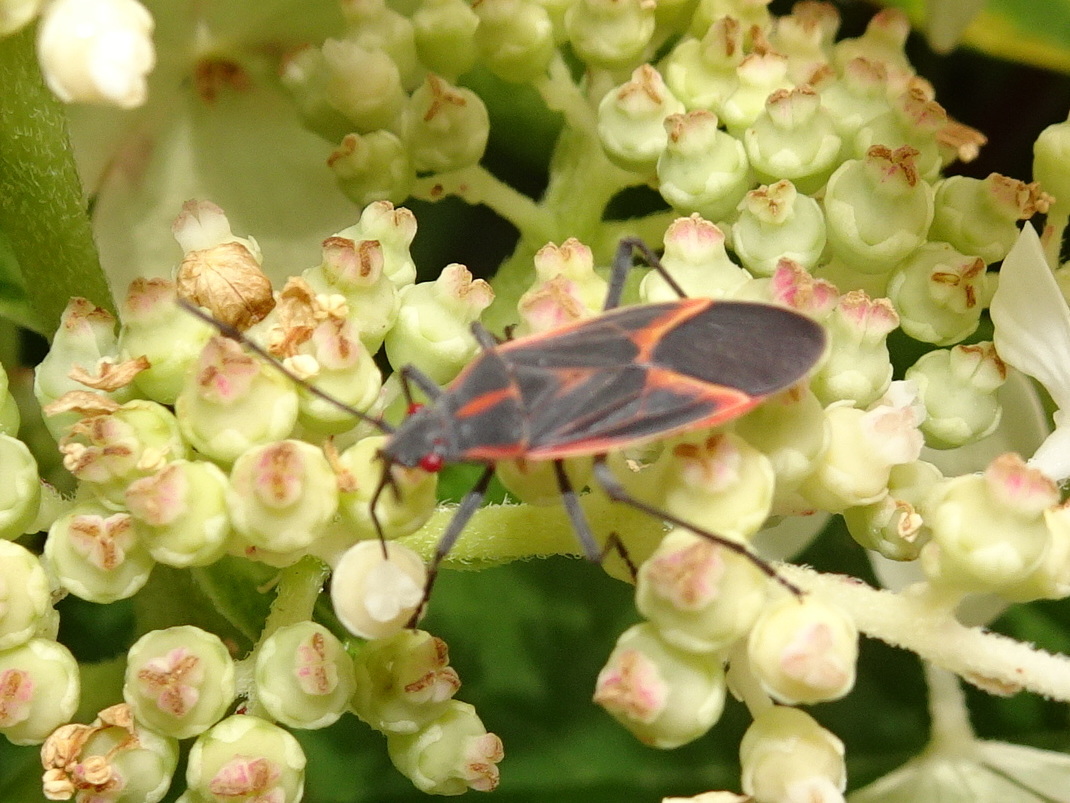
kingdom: Animalia
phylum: Arthropoda
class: Insecta
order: Hemiptera
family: Rhopalidae
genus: Boisea
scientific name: Boisea trivittata
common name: Boxelder bug
